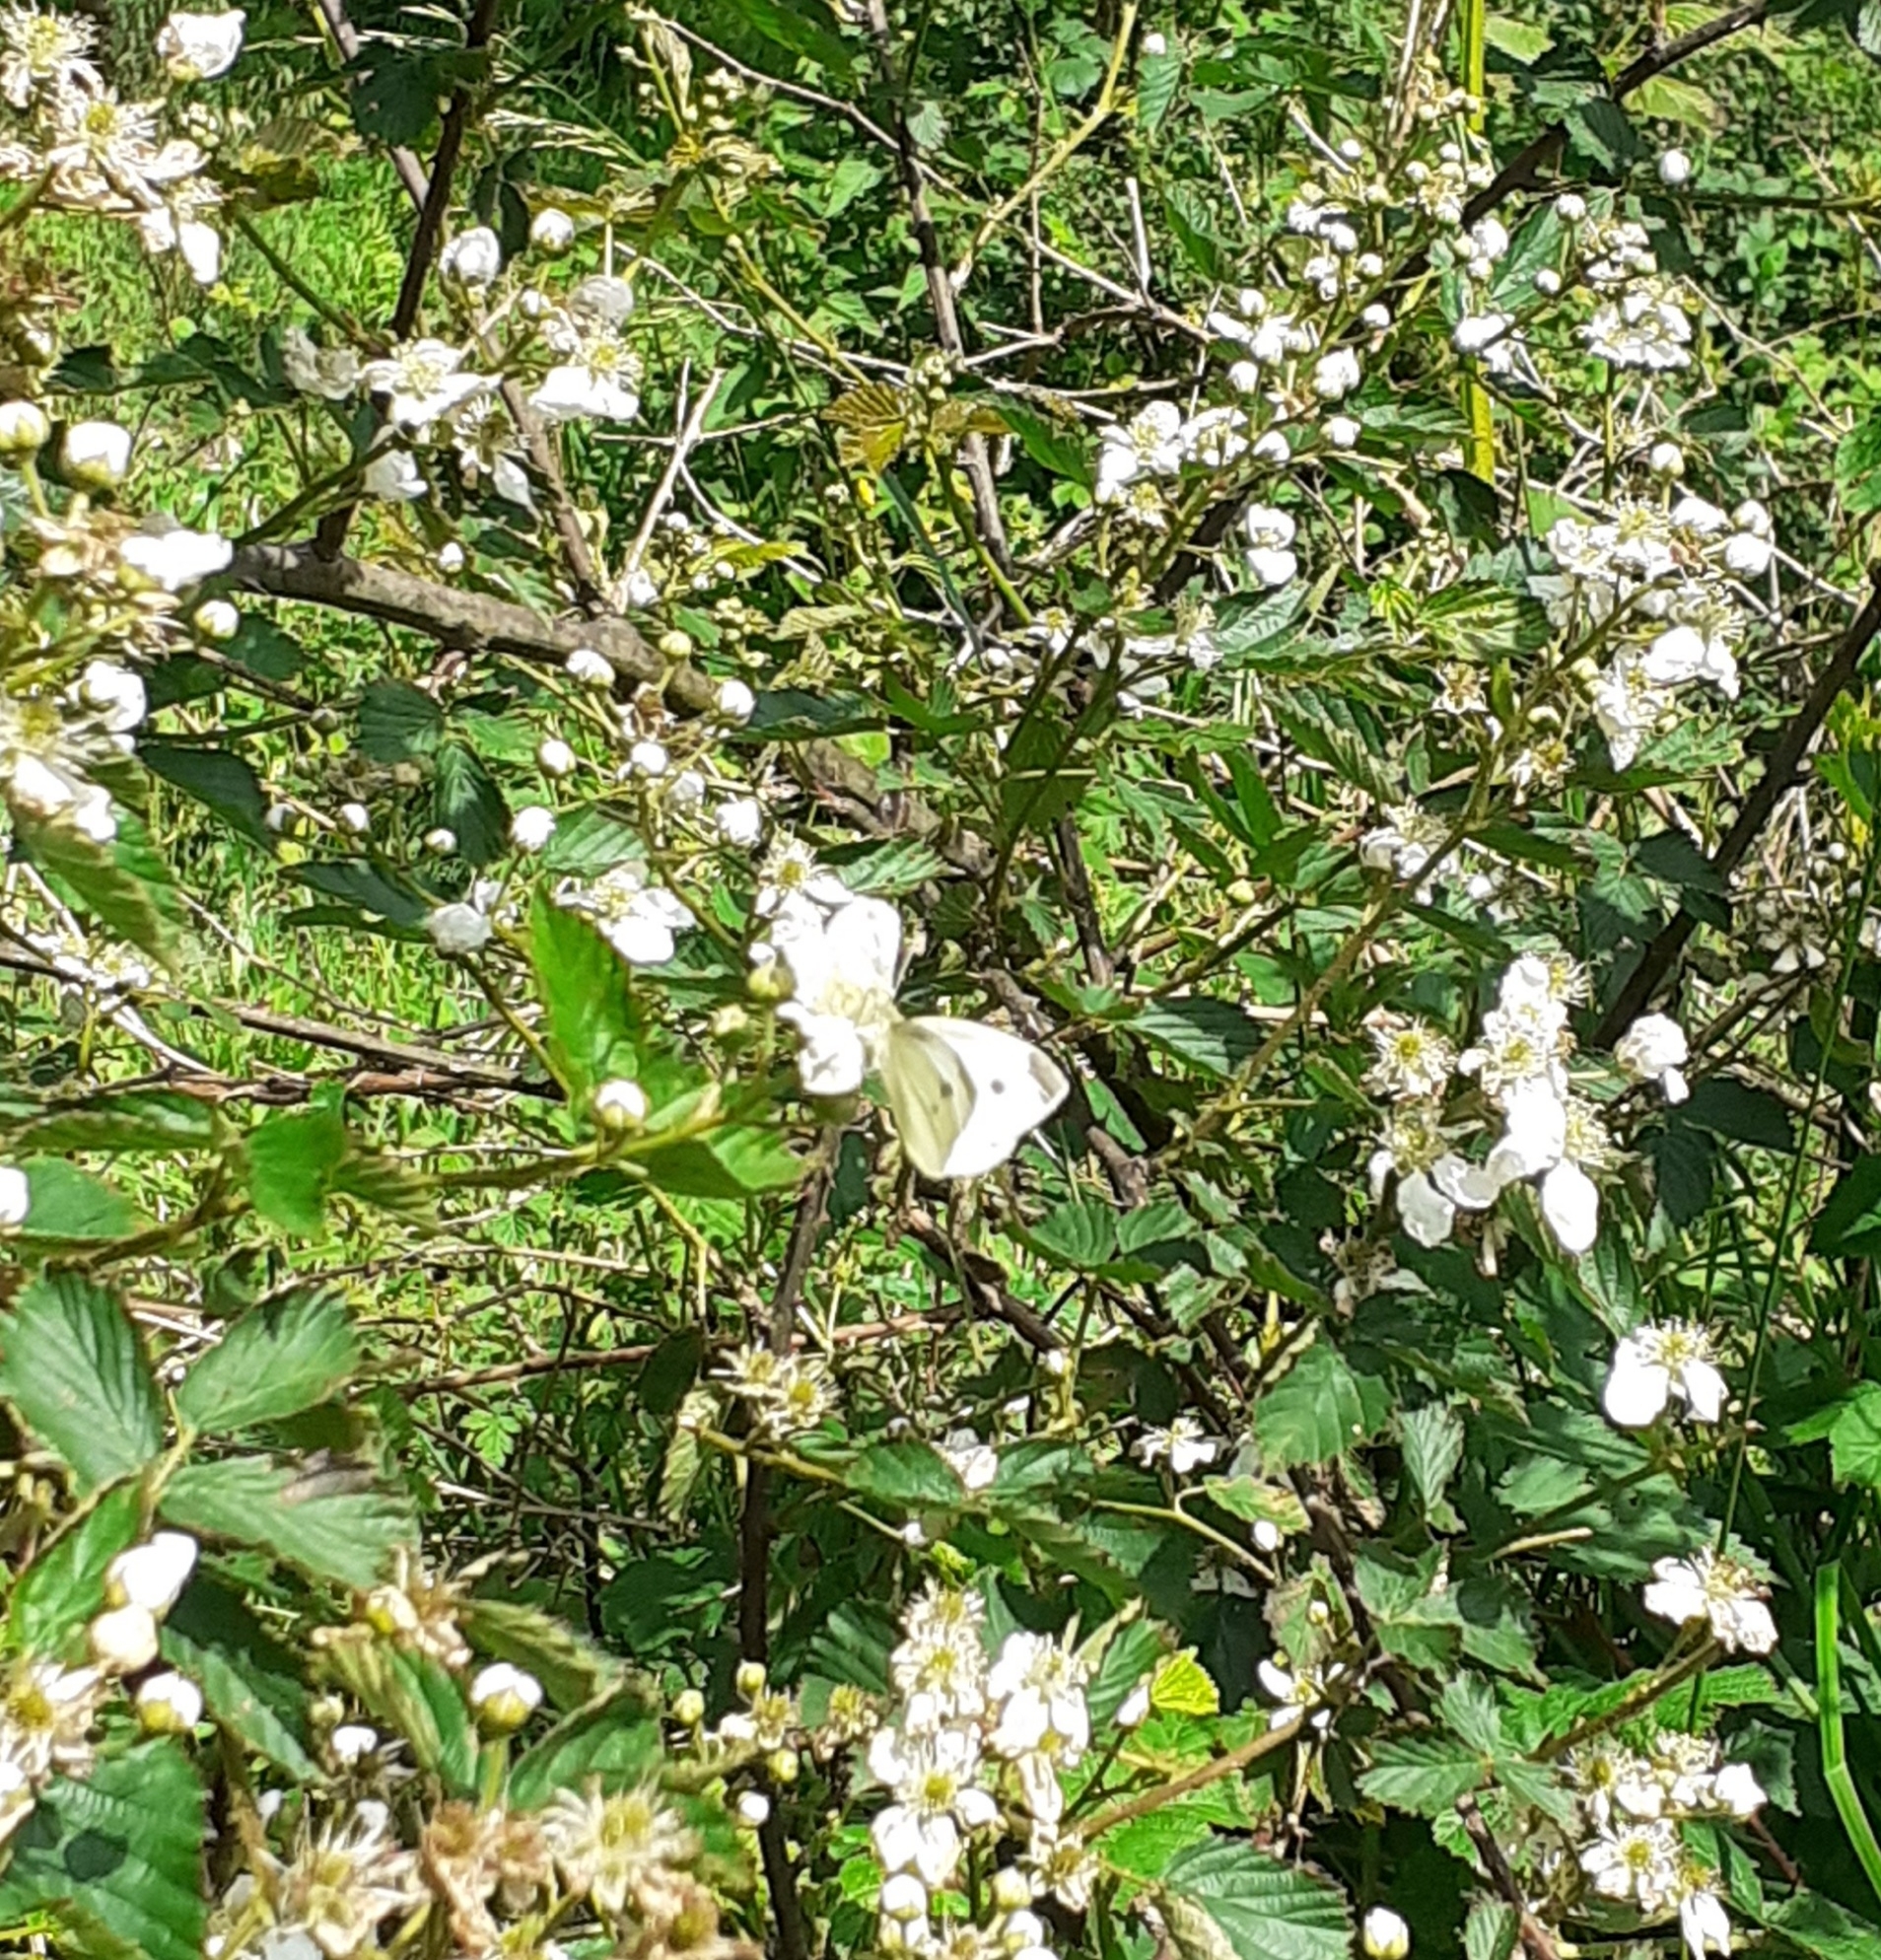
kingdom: Animalia
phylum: Arthropoda
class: Insecta
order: Lepidoptera
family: Pieridae
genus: Pieris
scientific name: Pieris rapae
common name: Small white
